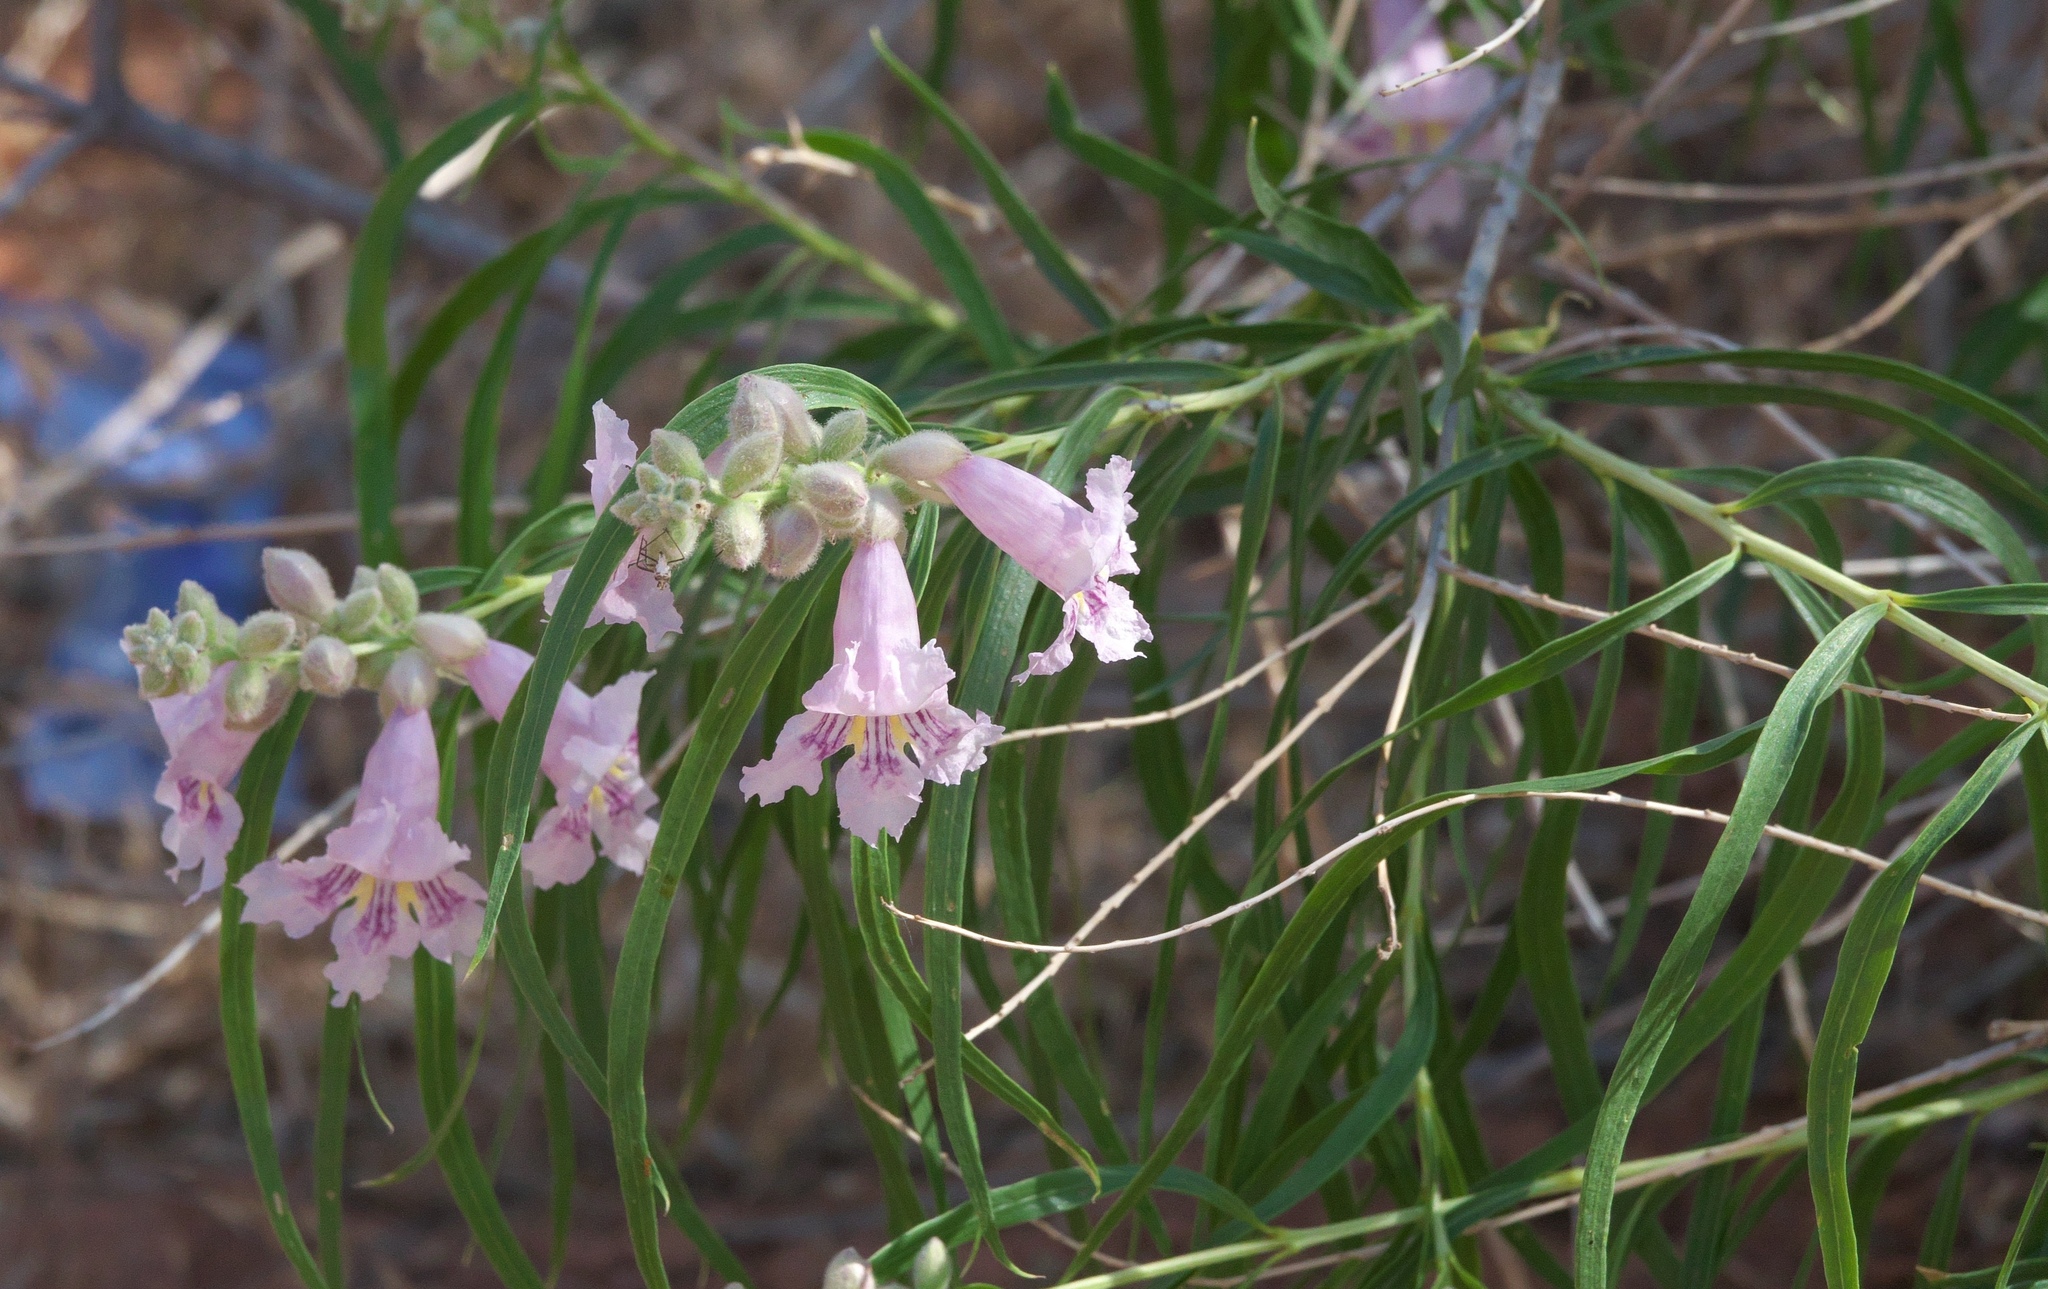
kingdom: Plantae
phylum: Tracheophyta
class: Magnoliopsida
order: Lamiales
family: Bignoniaceae
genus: Chilopsis
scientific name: Chilopsis linearis
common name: Desert-willow
